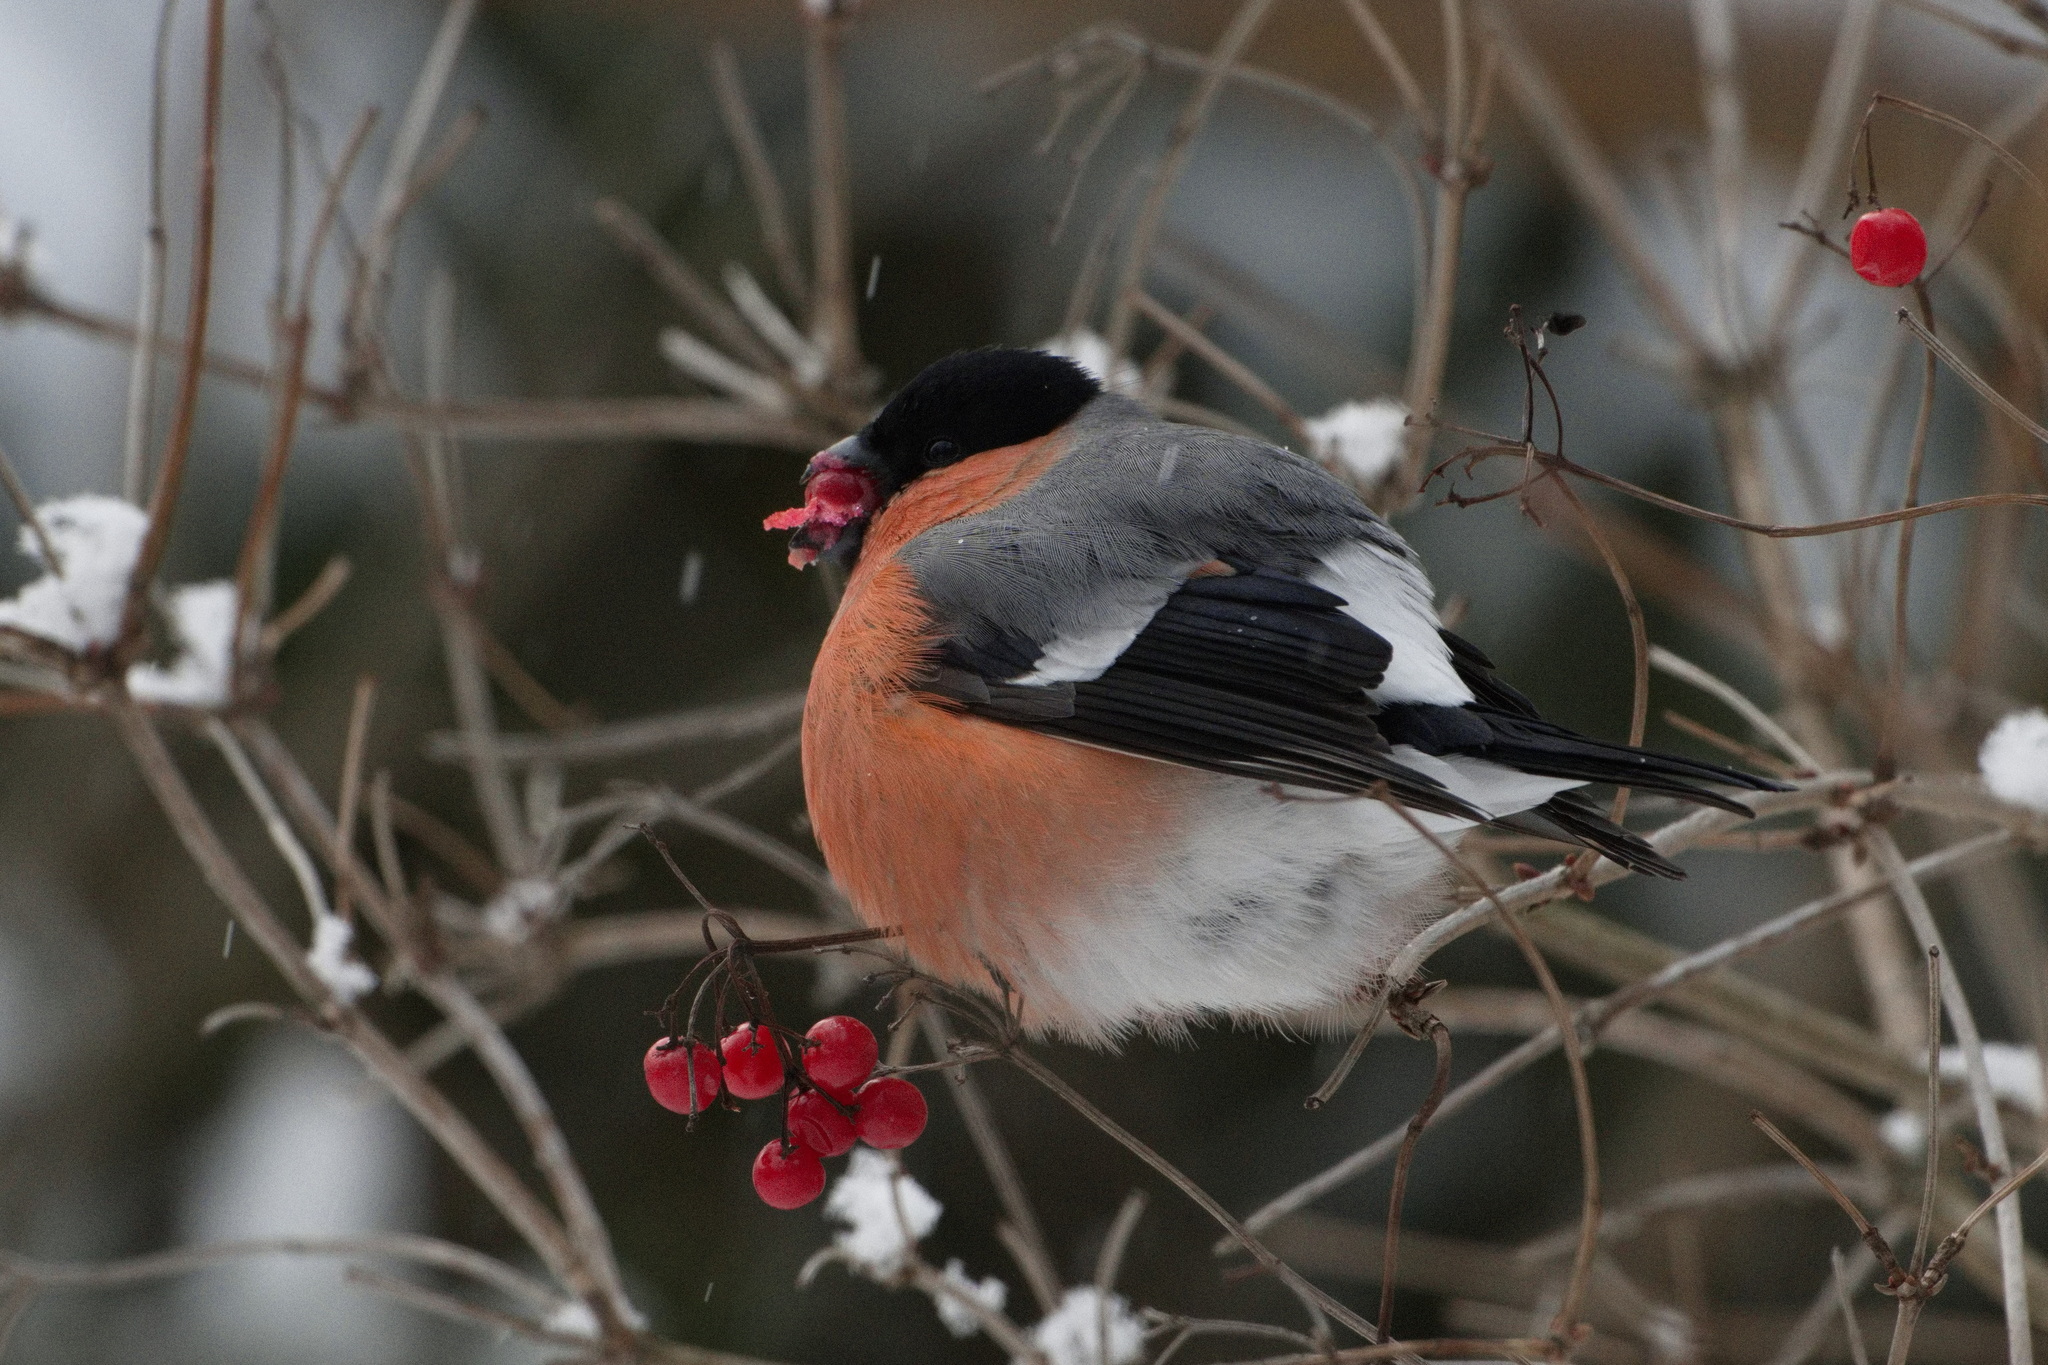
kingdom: Animalia
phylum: Chordata
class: Aves
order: Passeriformes
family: Fringillidae
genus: Pyrrhula
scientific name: Pyrrhula pyrrhula
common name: Eurasian bullfinch
